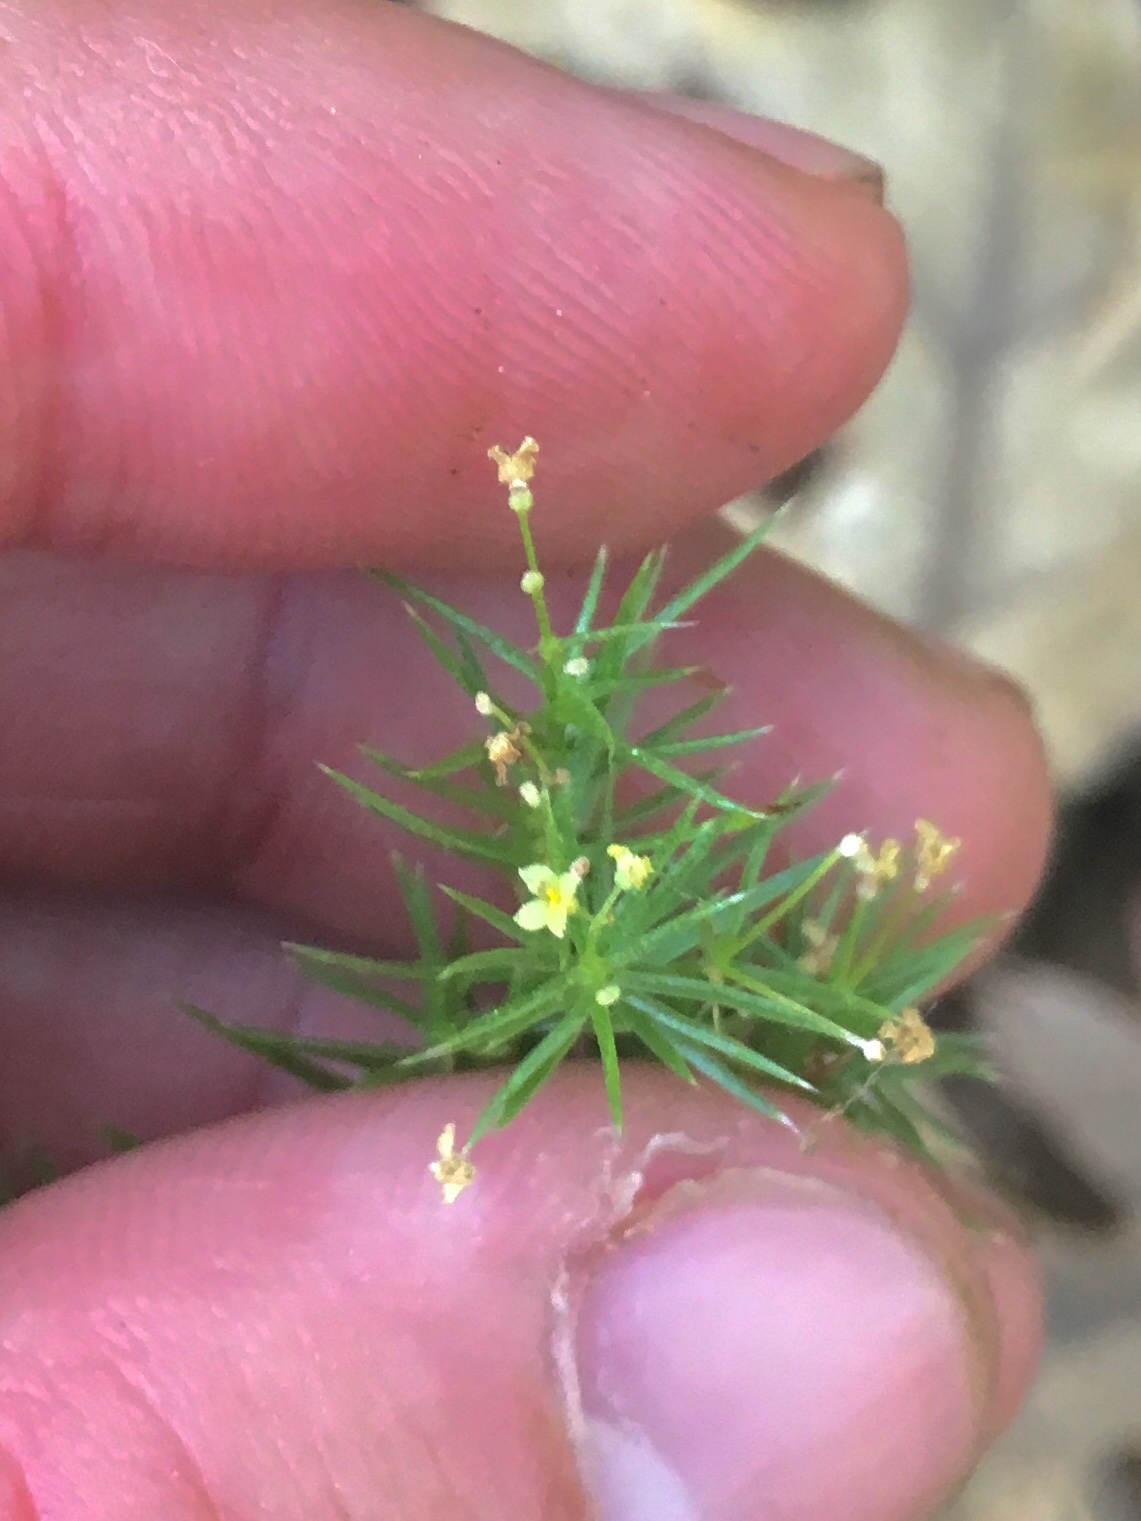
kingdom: Plantae
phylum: Tracheophyta
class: Magnoliopsida
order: Gentianales
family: Rubiaceae
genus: Galium
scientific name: Galium andrewsii
